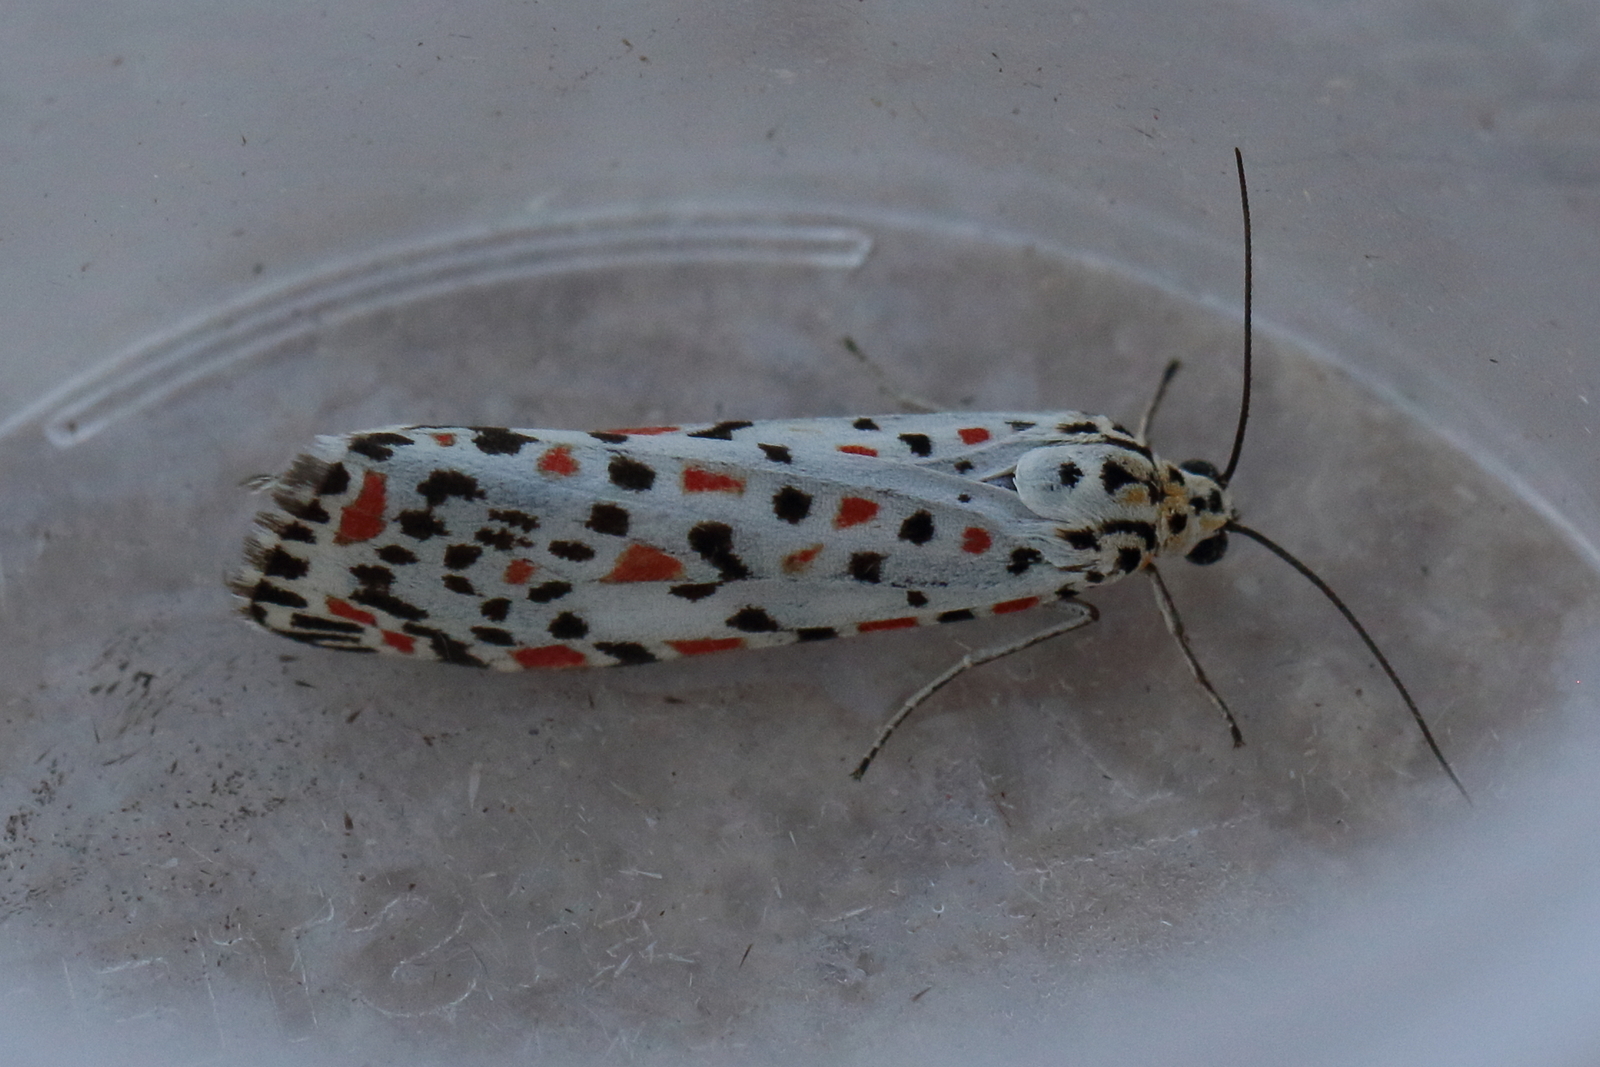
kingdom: Animalia
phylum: Arthropoda
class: Insecta
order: Lepidoptera
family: Erebidae
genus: Utetheisa
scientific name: Utetheisa pulchelloides
